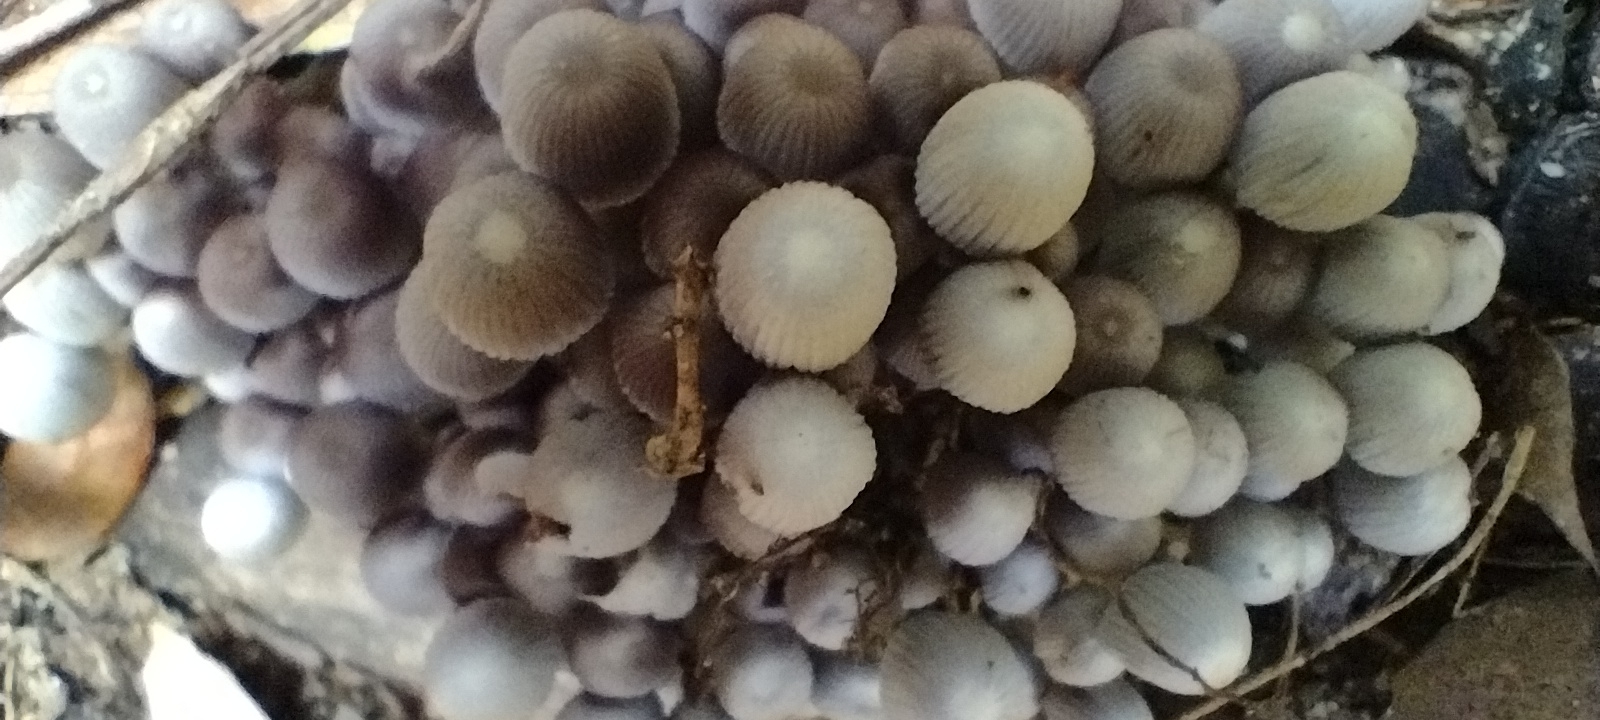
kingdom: Fungi
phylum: Basidiomycota
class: Agaricomycetes
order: Agaricales
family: Psathyrellaceae
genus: Coprinellus
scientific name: Coprinellus disseminatus
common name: Fairies' bonnets
